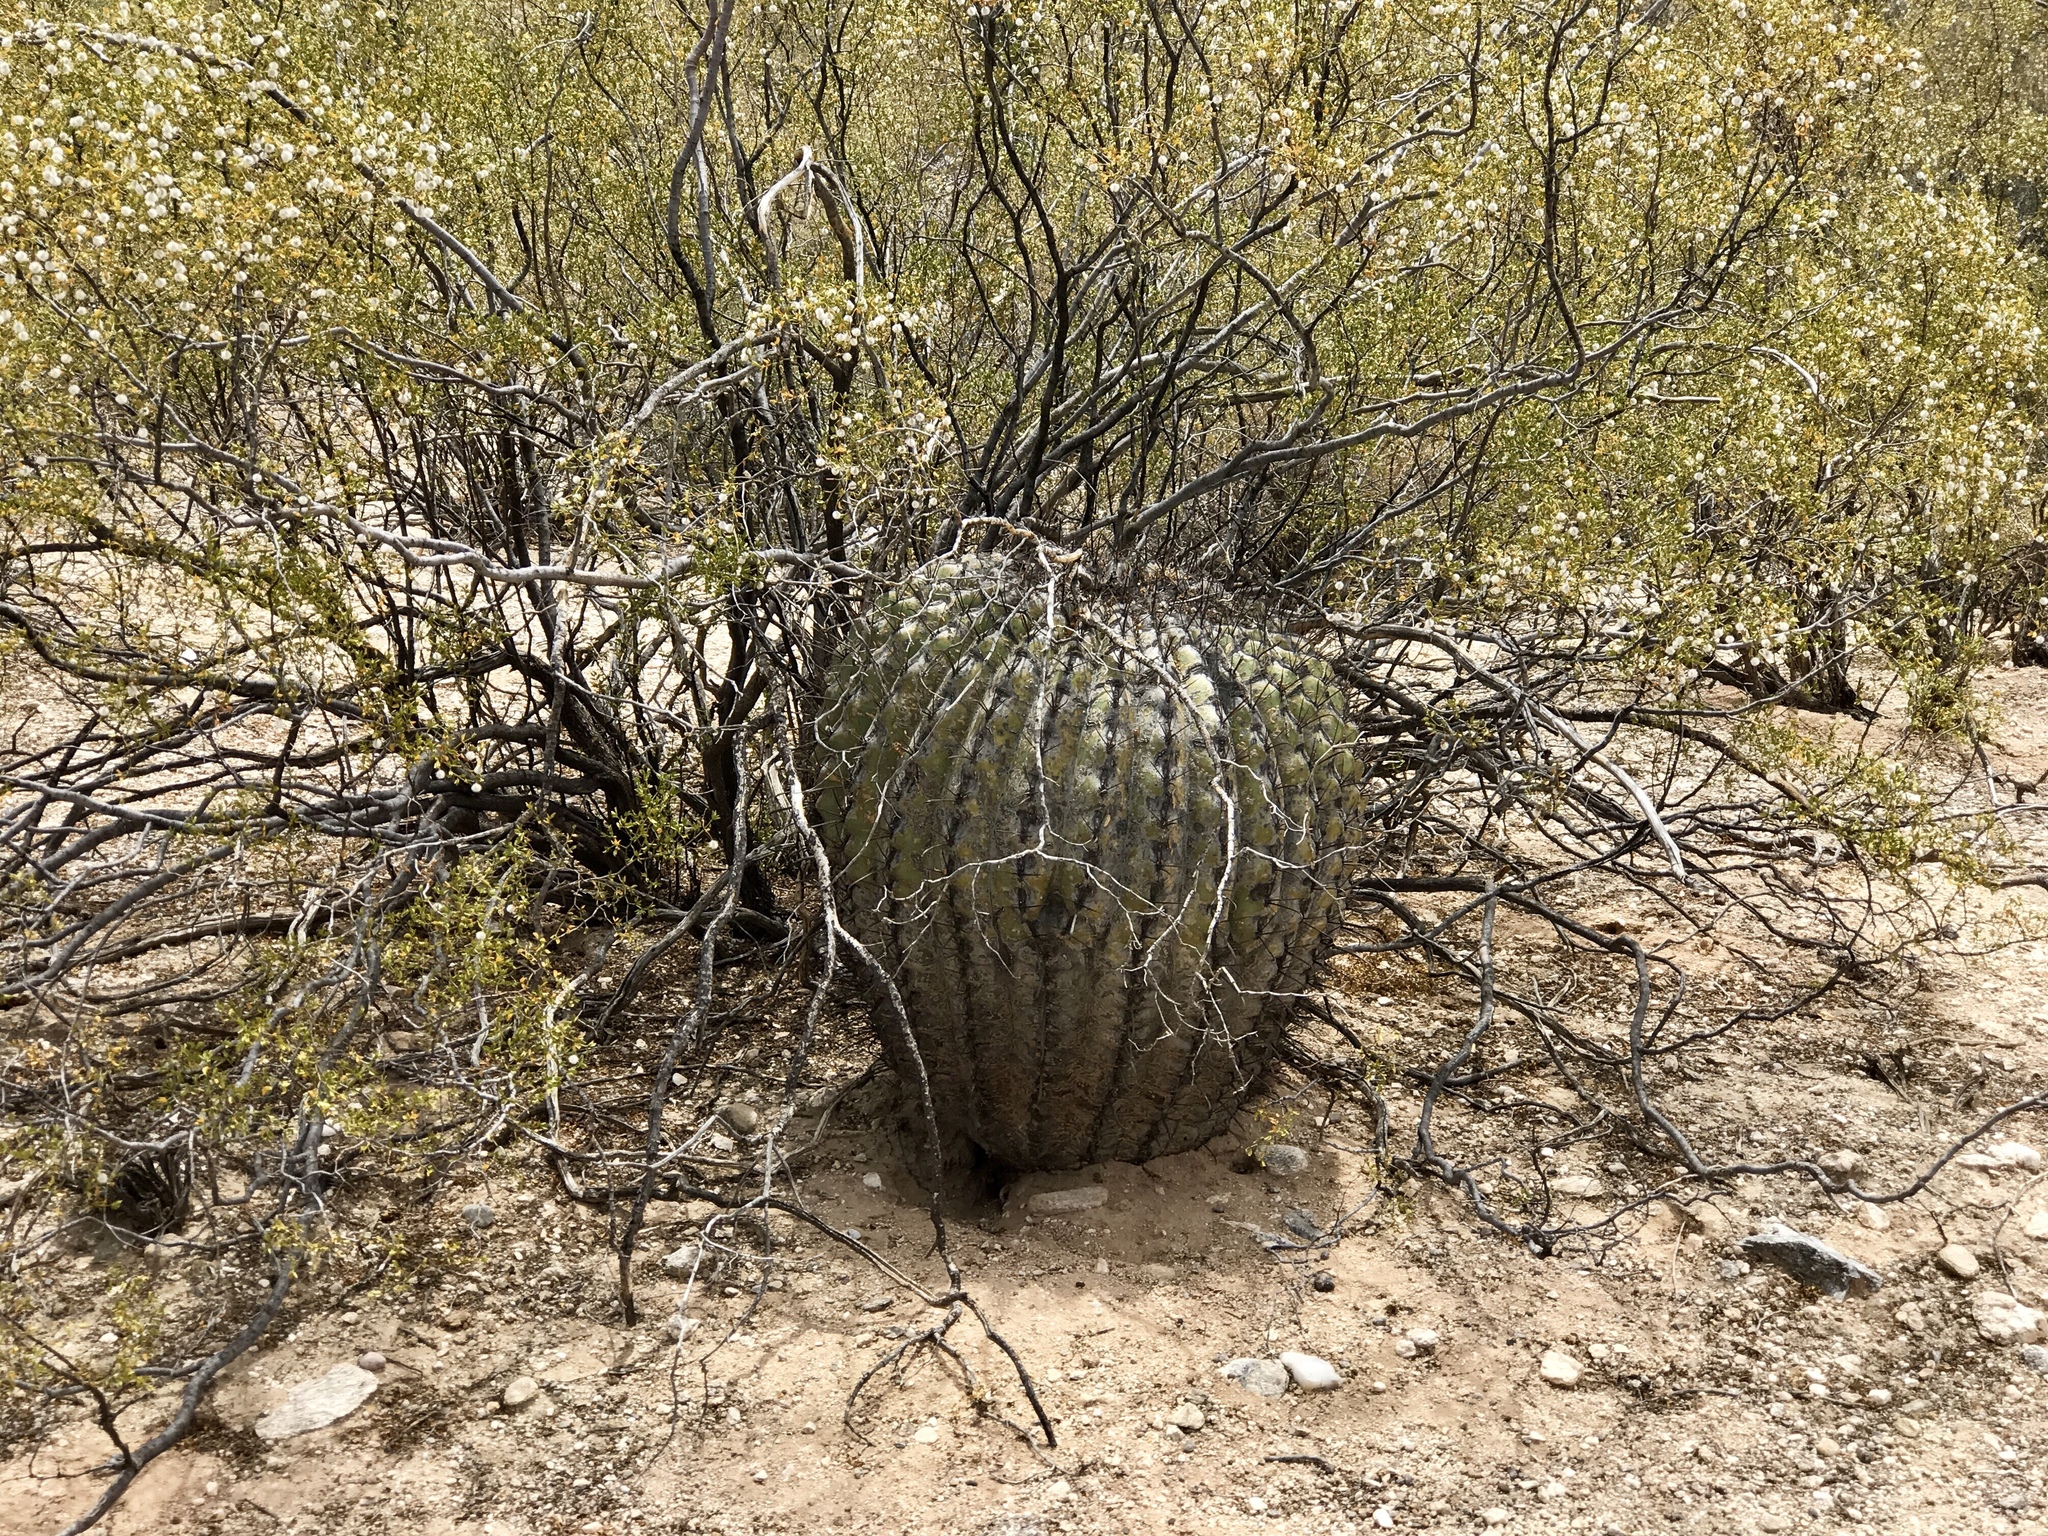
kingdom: Plantae
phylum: Tracheophyta
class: Magnoliopsida
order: Caryophyllales
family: Cactaceae
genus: Ferocactus
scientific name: Ferocactus wislizeni
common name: Candy barrel cactus
